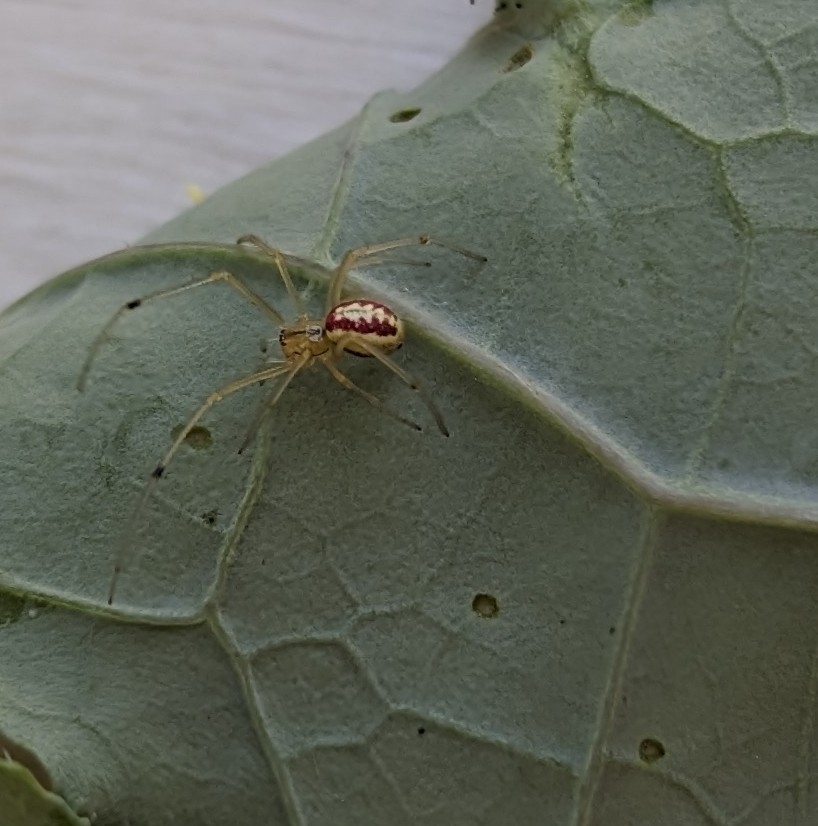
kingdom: Animalia
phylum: Arthropoda
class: Arachnida
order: Araneae
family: Theridiidae
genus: Enoplognatha
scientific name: Enoplognatha ovata
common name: Common candy-striped spider
